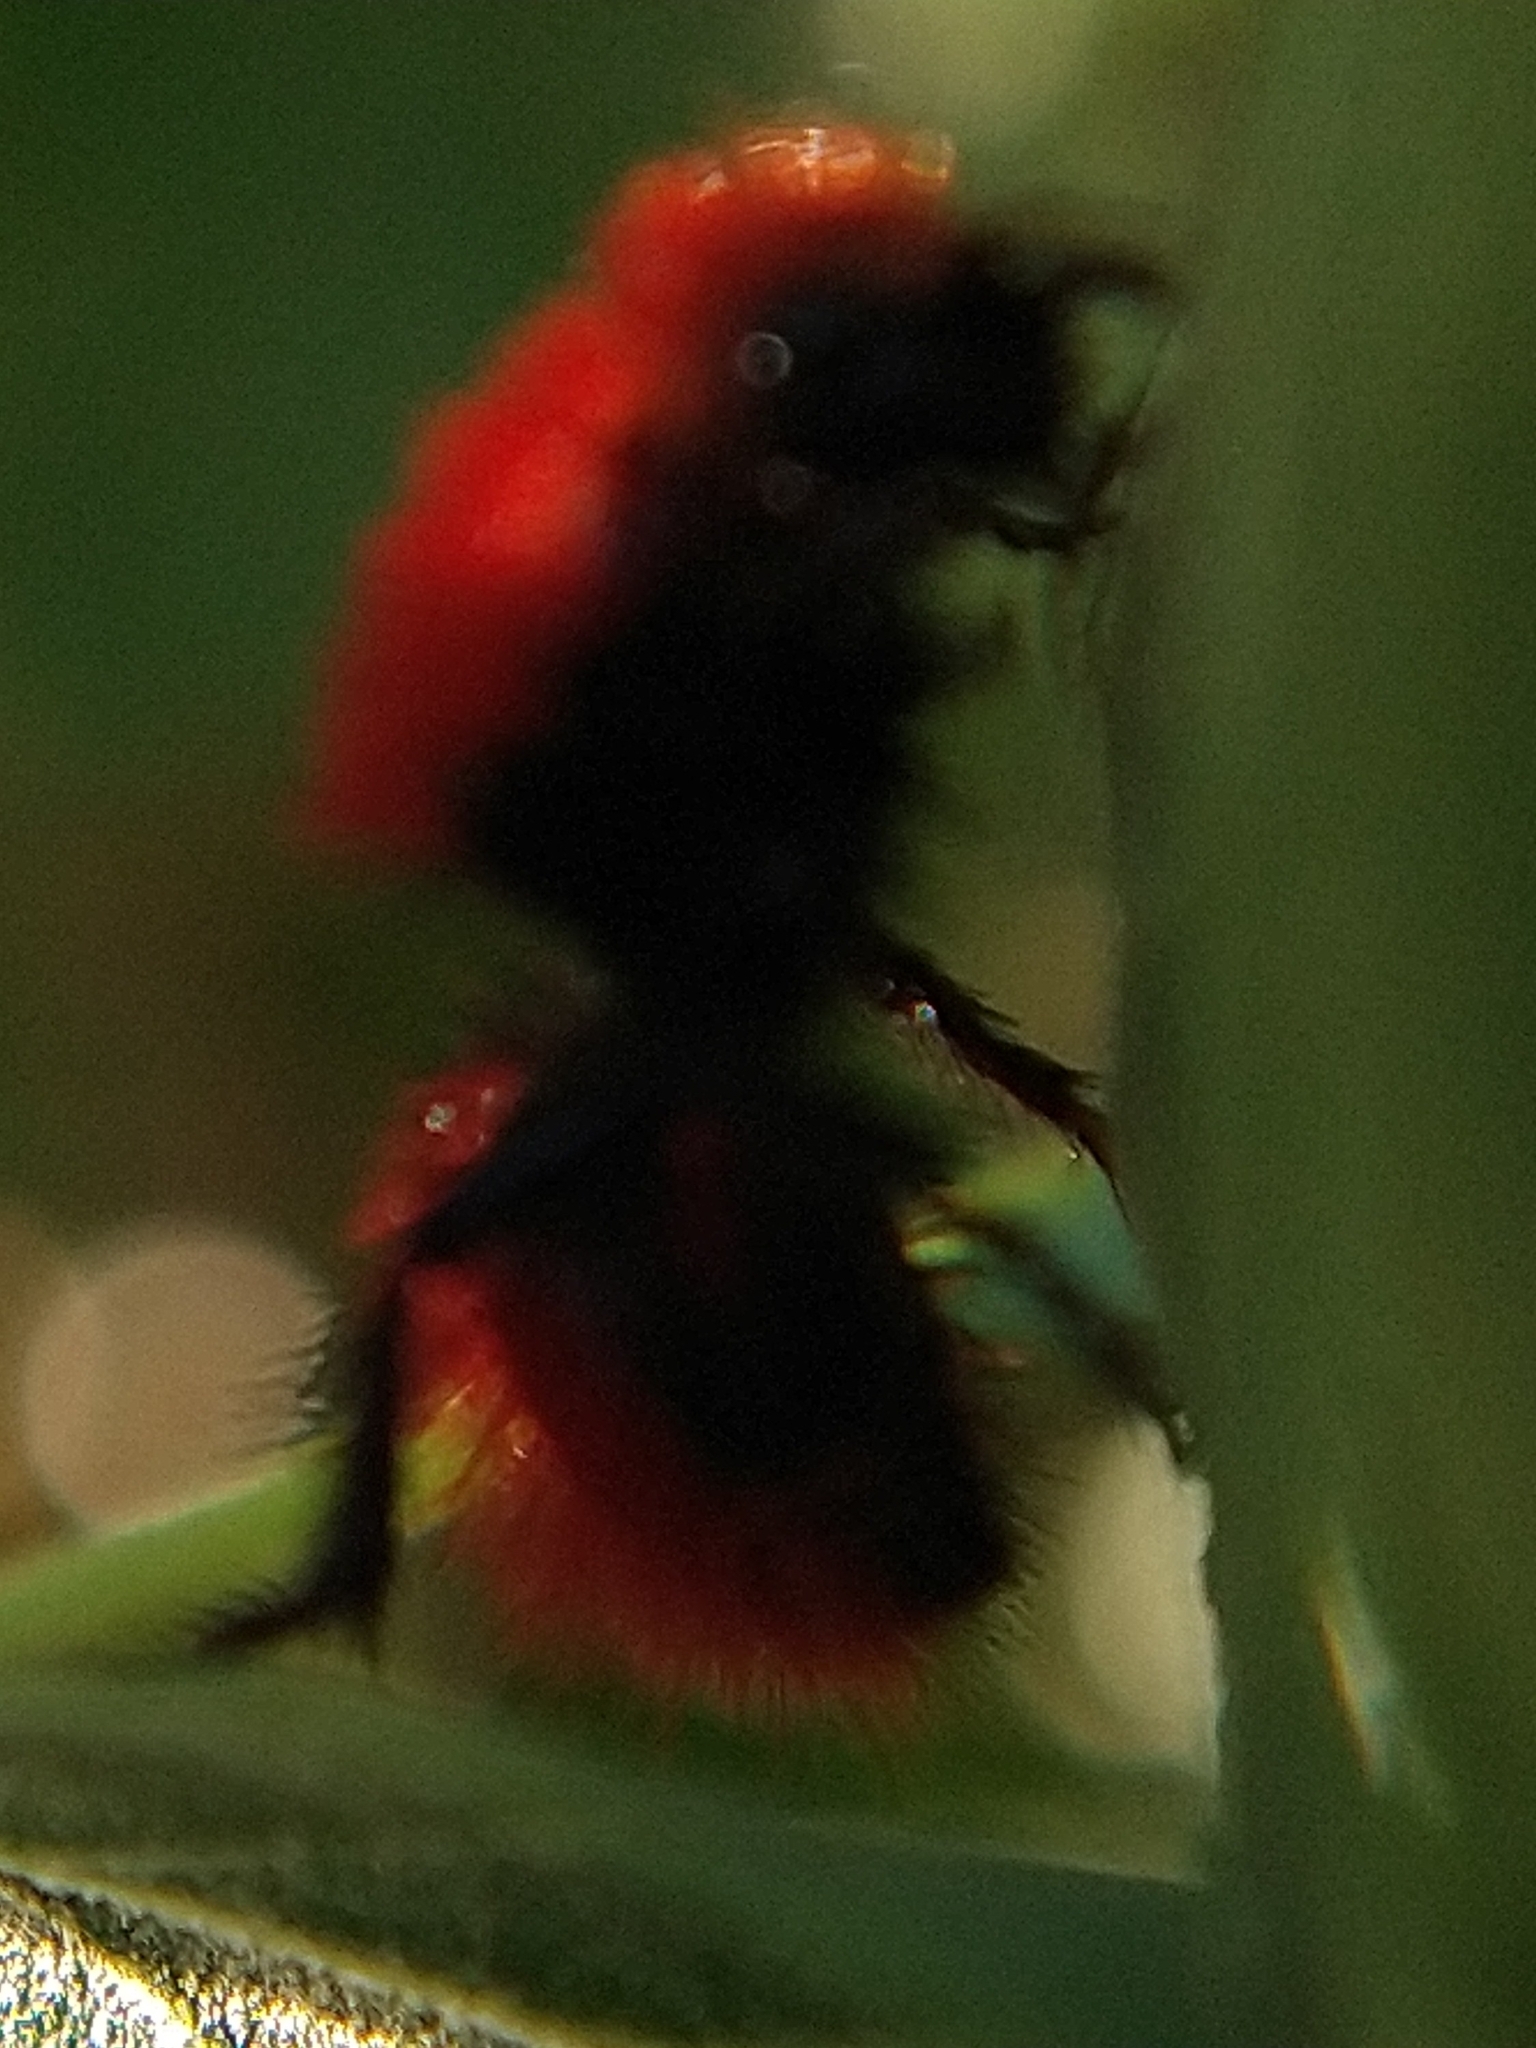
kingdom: Animalia
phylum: Arthropoda
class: Insecta
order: Hymenoptera
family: Mutillidae
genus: Dasymutilla
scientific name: Dasymutilla
